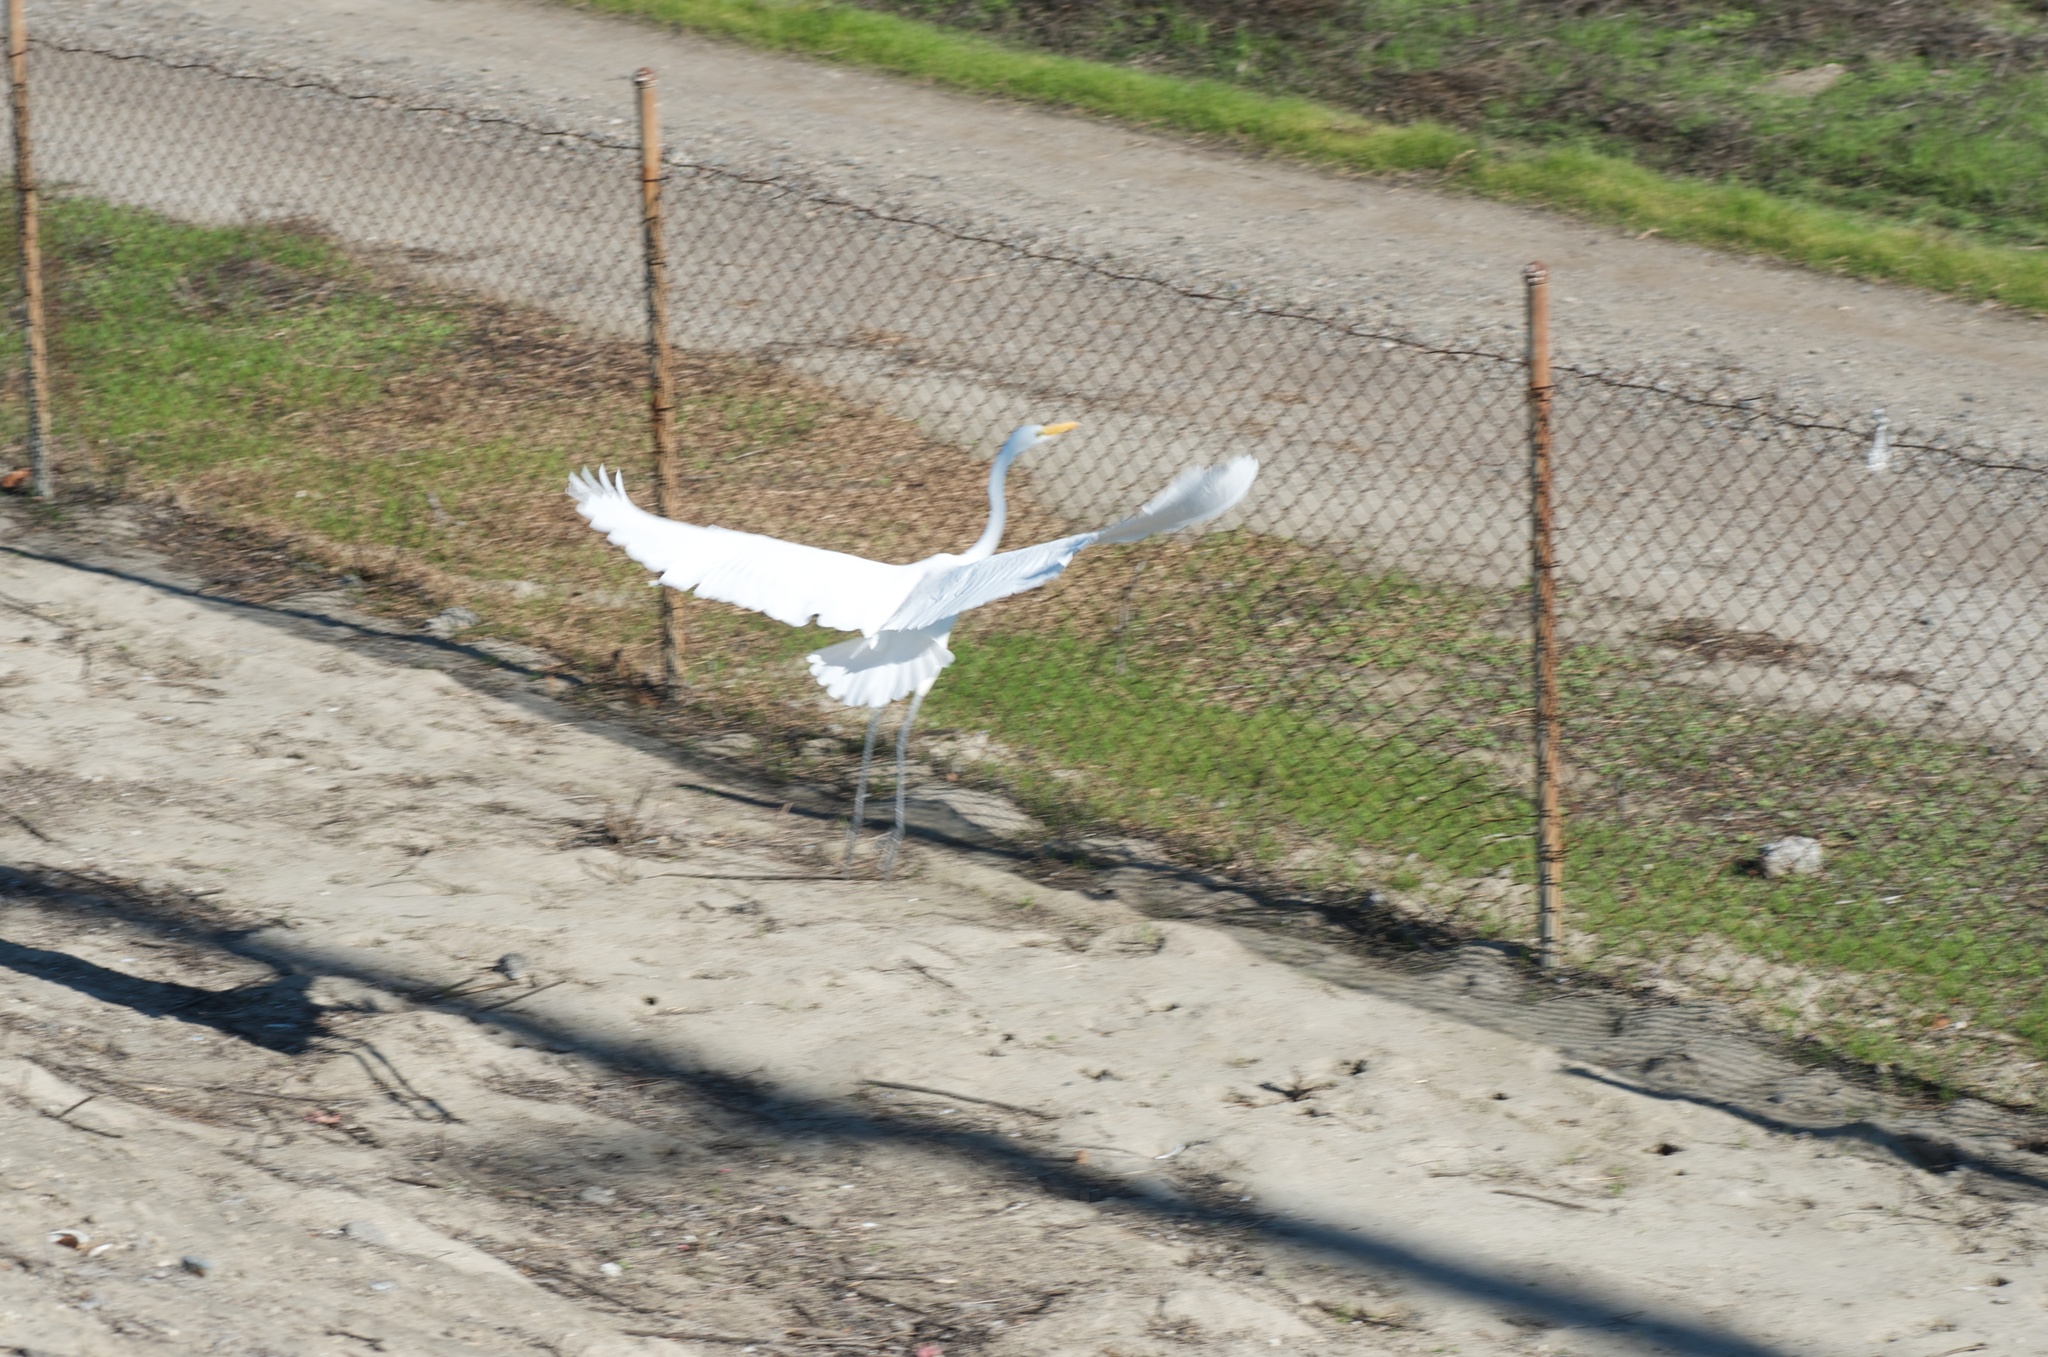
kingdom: Animalia
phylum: Chordata
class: Aves
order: Pelecaniformes
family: Ardeidae
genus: Ardea
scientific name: Ardea alba
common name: Great egret
